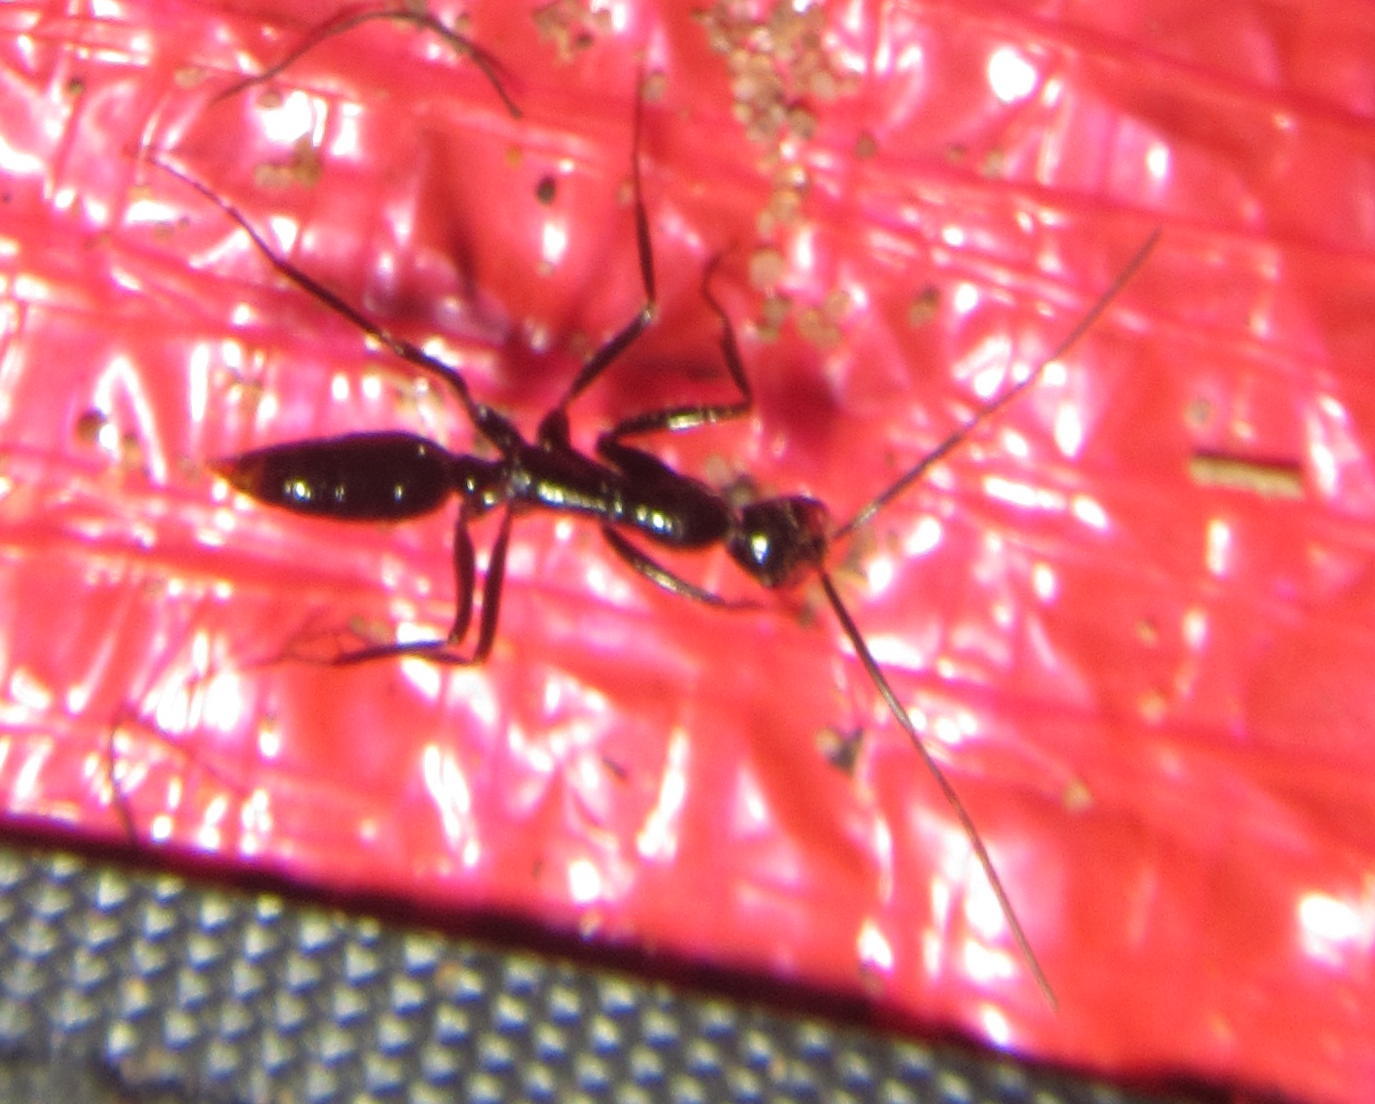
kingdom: Animalia
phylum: Arthropoda
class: Insecta
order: Hymenoptera
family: Formicidae
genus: Leptogenys
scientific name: Leptogenys schwabi
